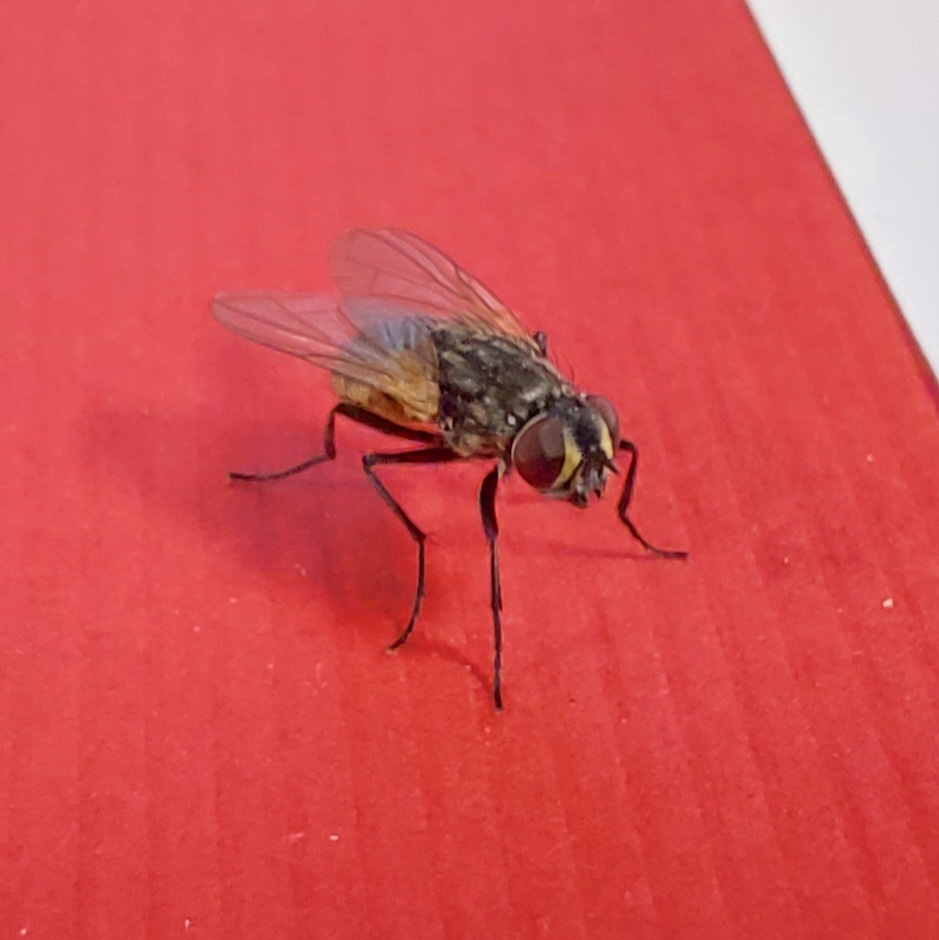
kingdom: Animalia
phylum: Arthropoda
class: Insecta
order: Diptera
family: Muscidae
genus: Musca
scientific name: Musca domestica
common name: House fly
